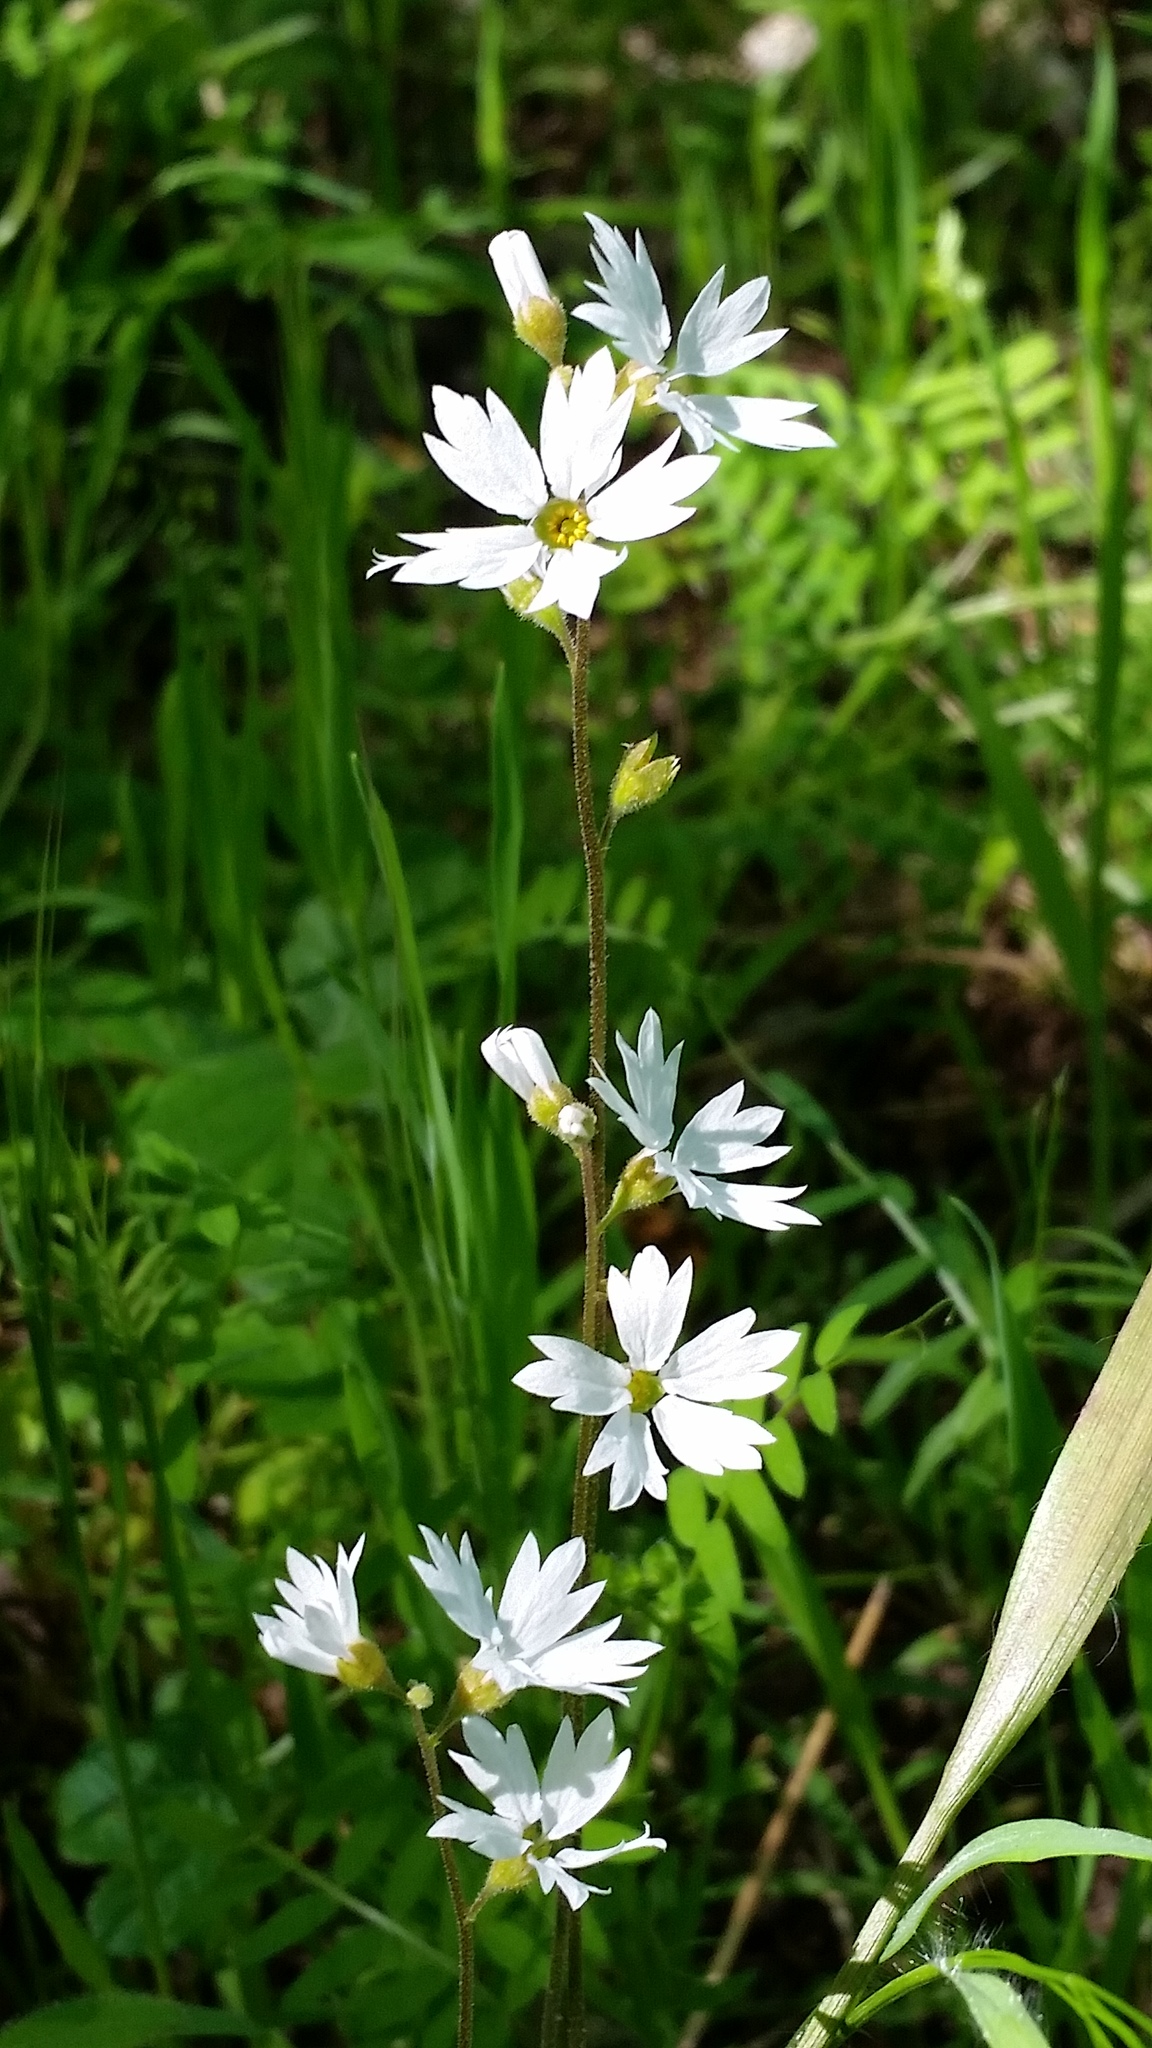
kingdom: Plantae
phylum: Tracheophyta
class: Magnoliopsida
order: Saxifragales
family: Saxifragaceae
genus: Lithophragma
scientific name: Lithophragma affine
